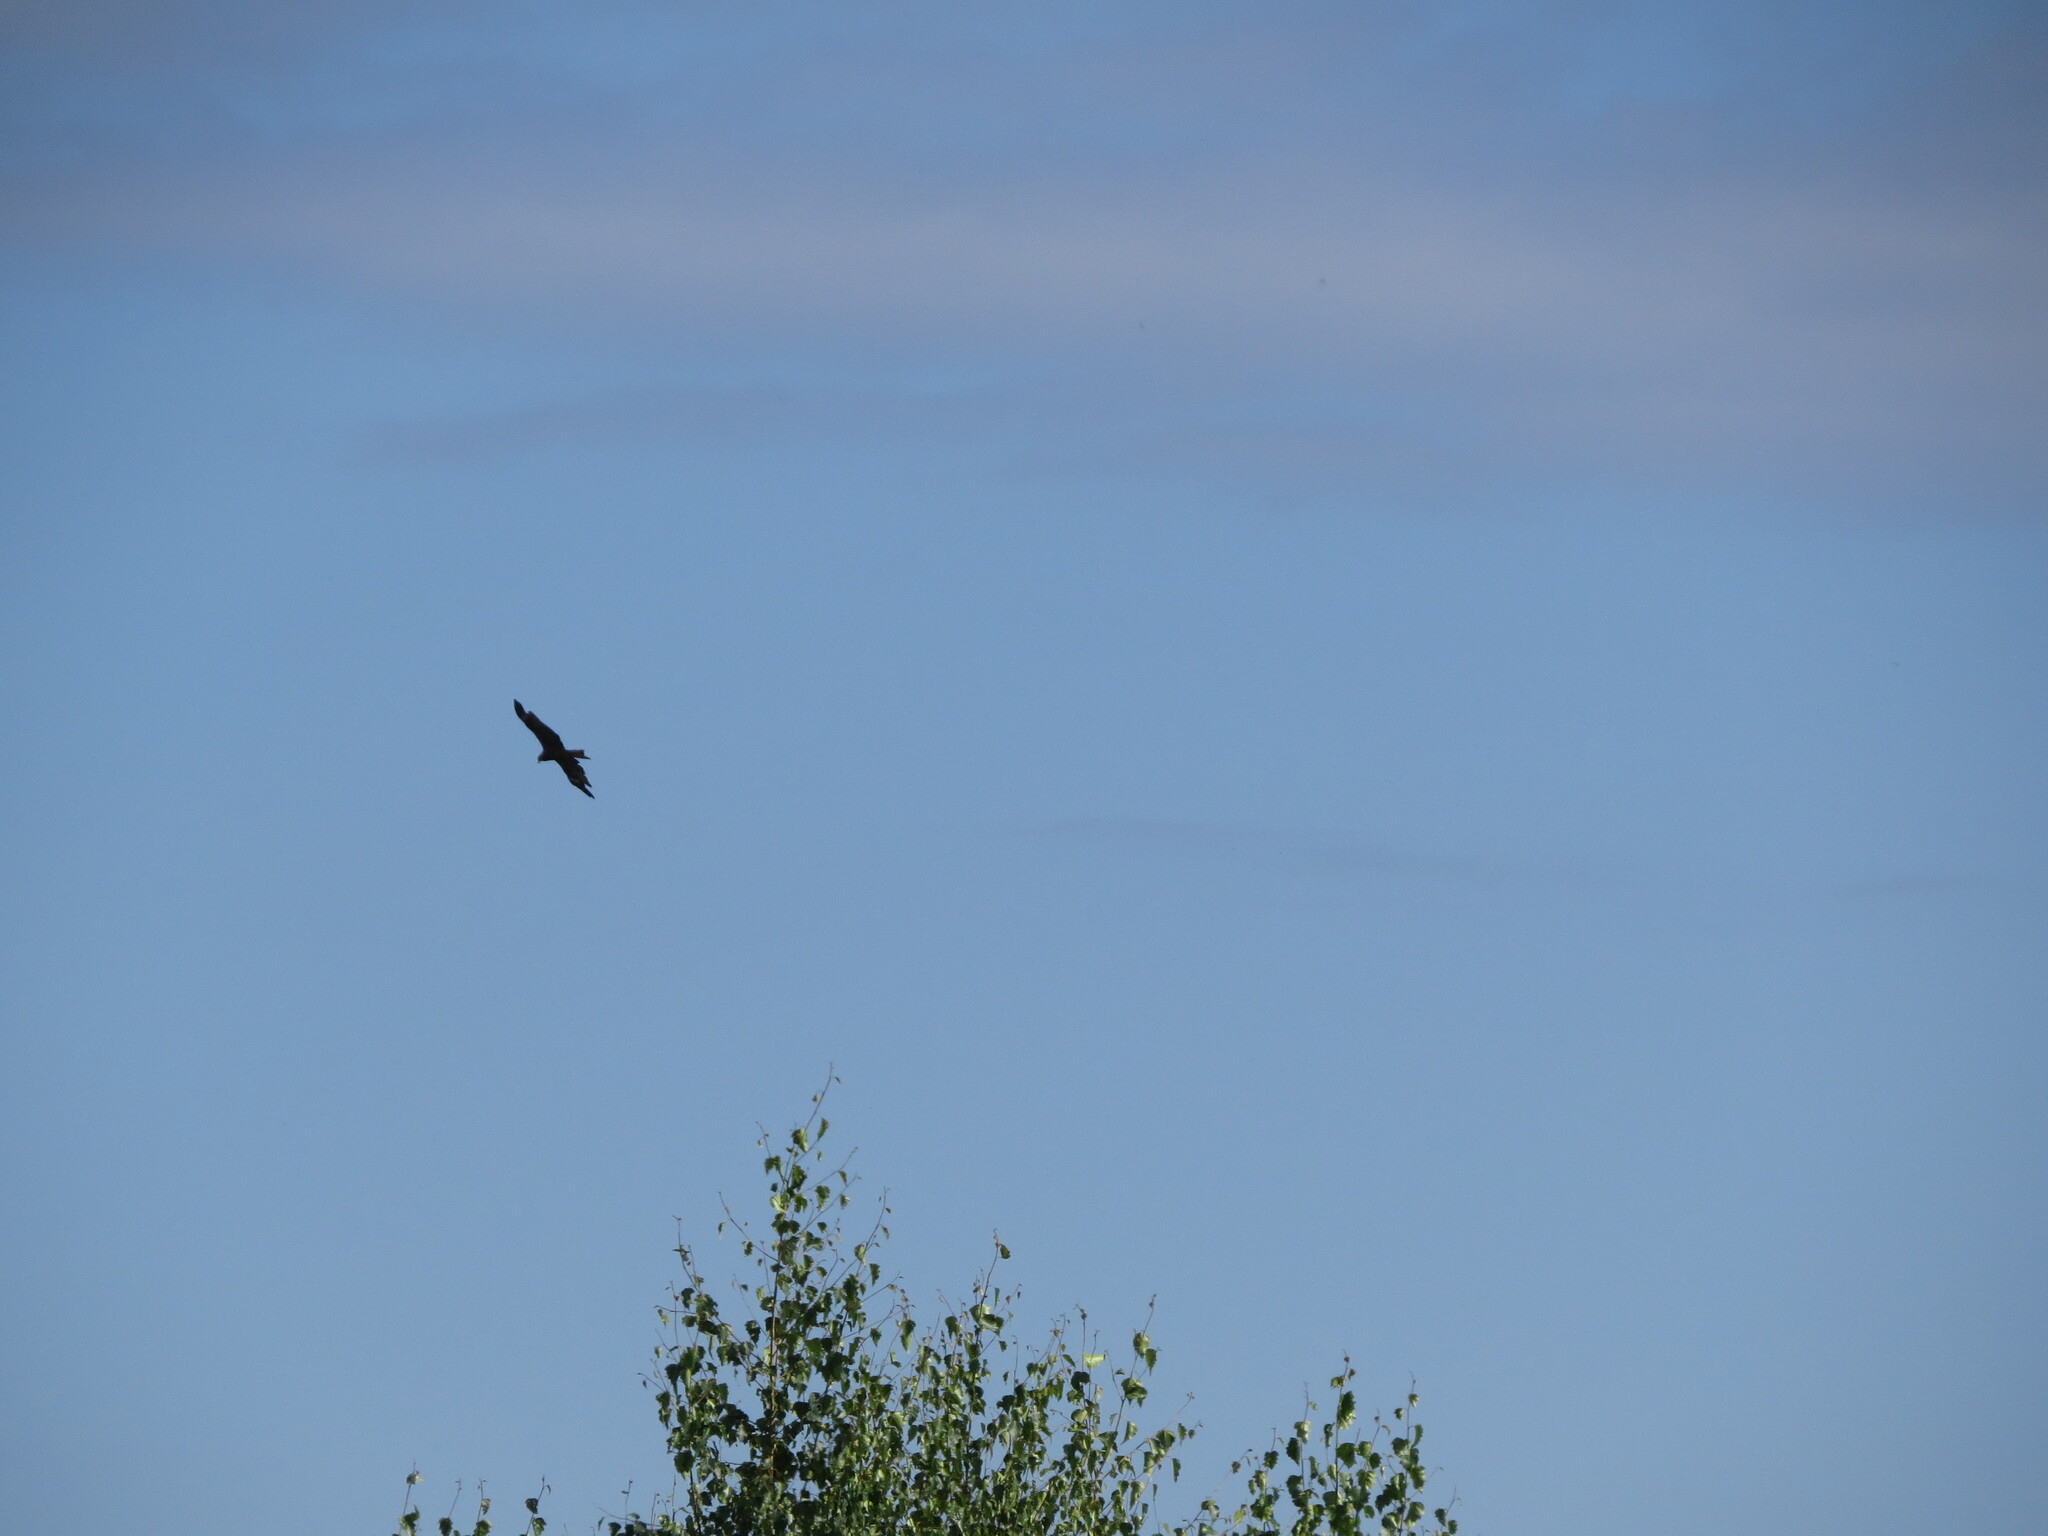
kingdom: Animalia
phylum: Chordata
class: Aves
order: Accipitriformes
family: Accipitridae
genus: Milvus
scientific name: Milvus migrans
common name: Black kite
